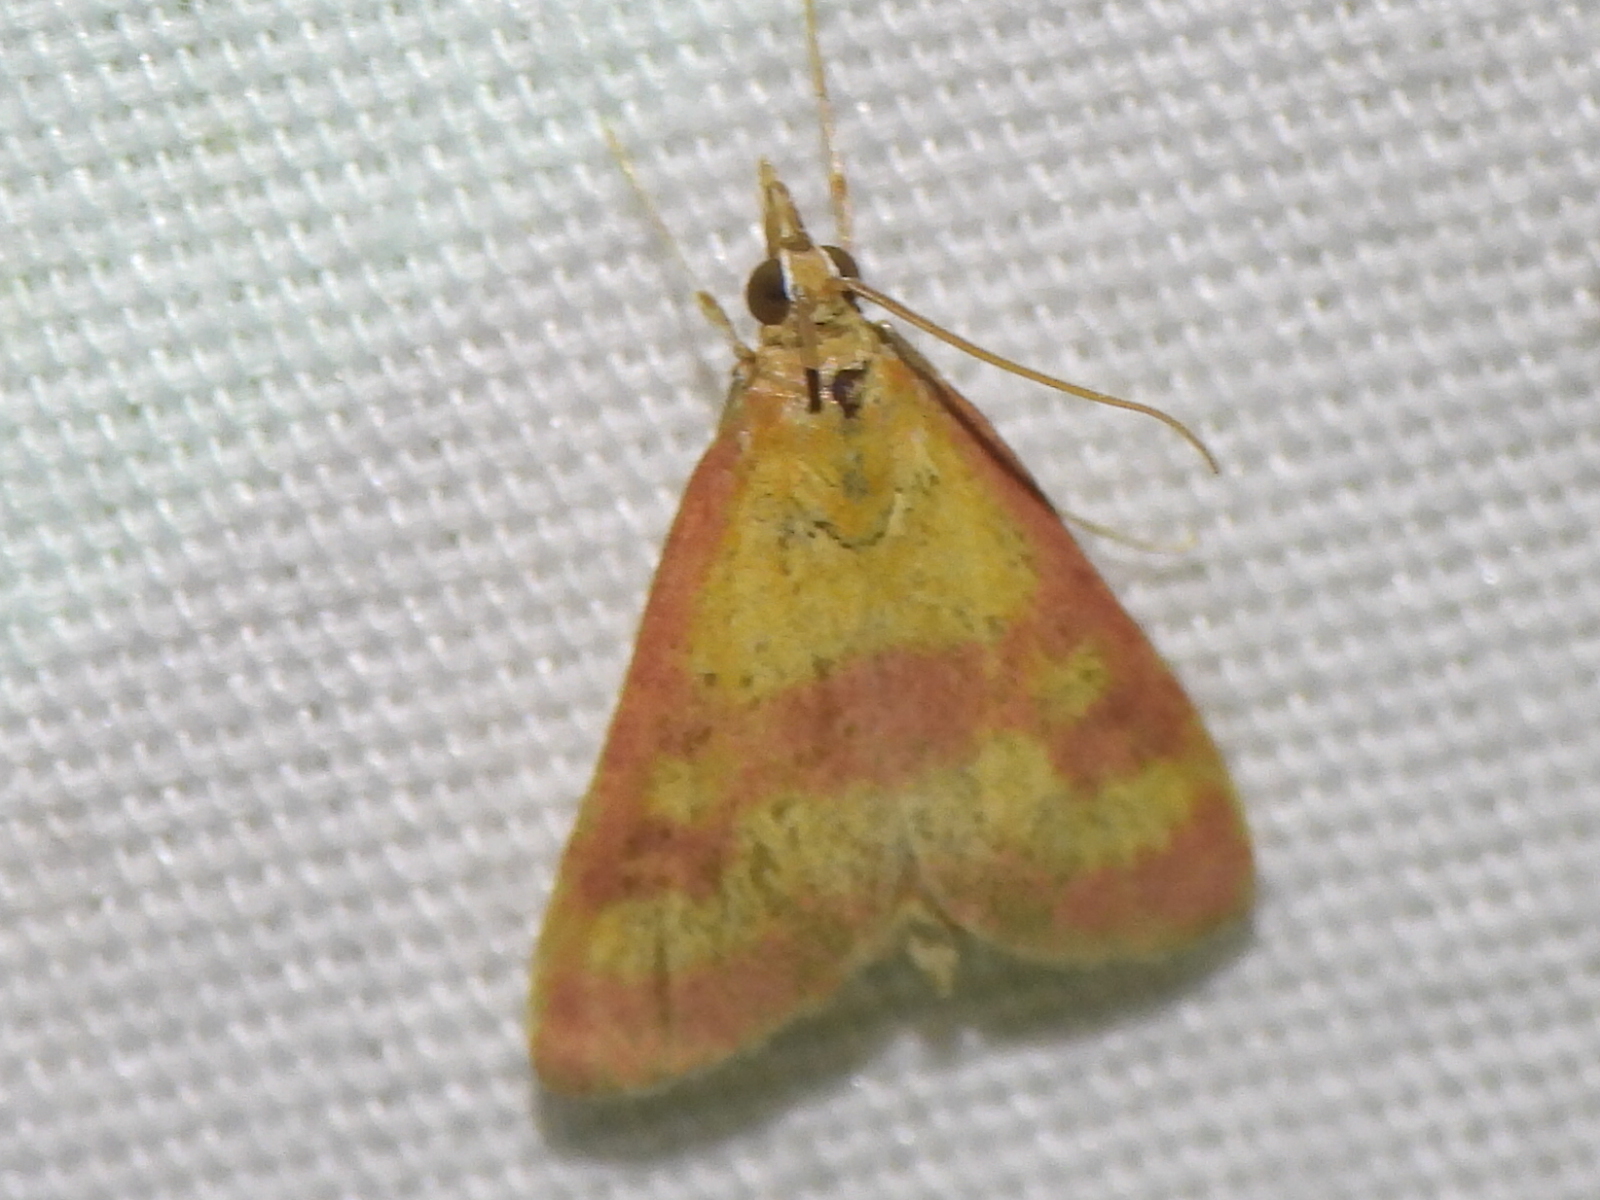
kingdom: Animalia
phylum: Arthropoda
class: Insecta
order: Lepidoptera
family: Crambidae
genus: Pyrausta
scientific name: Pyrausta laticlavia
